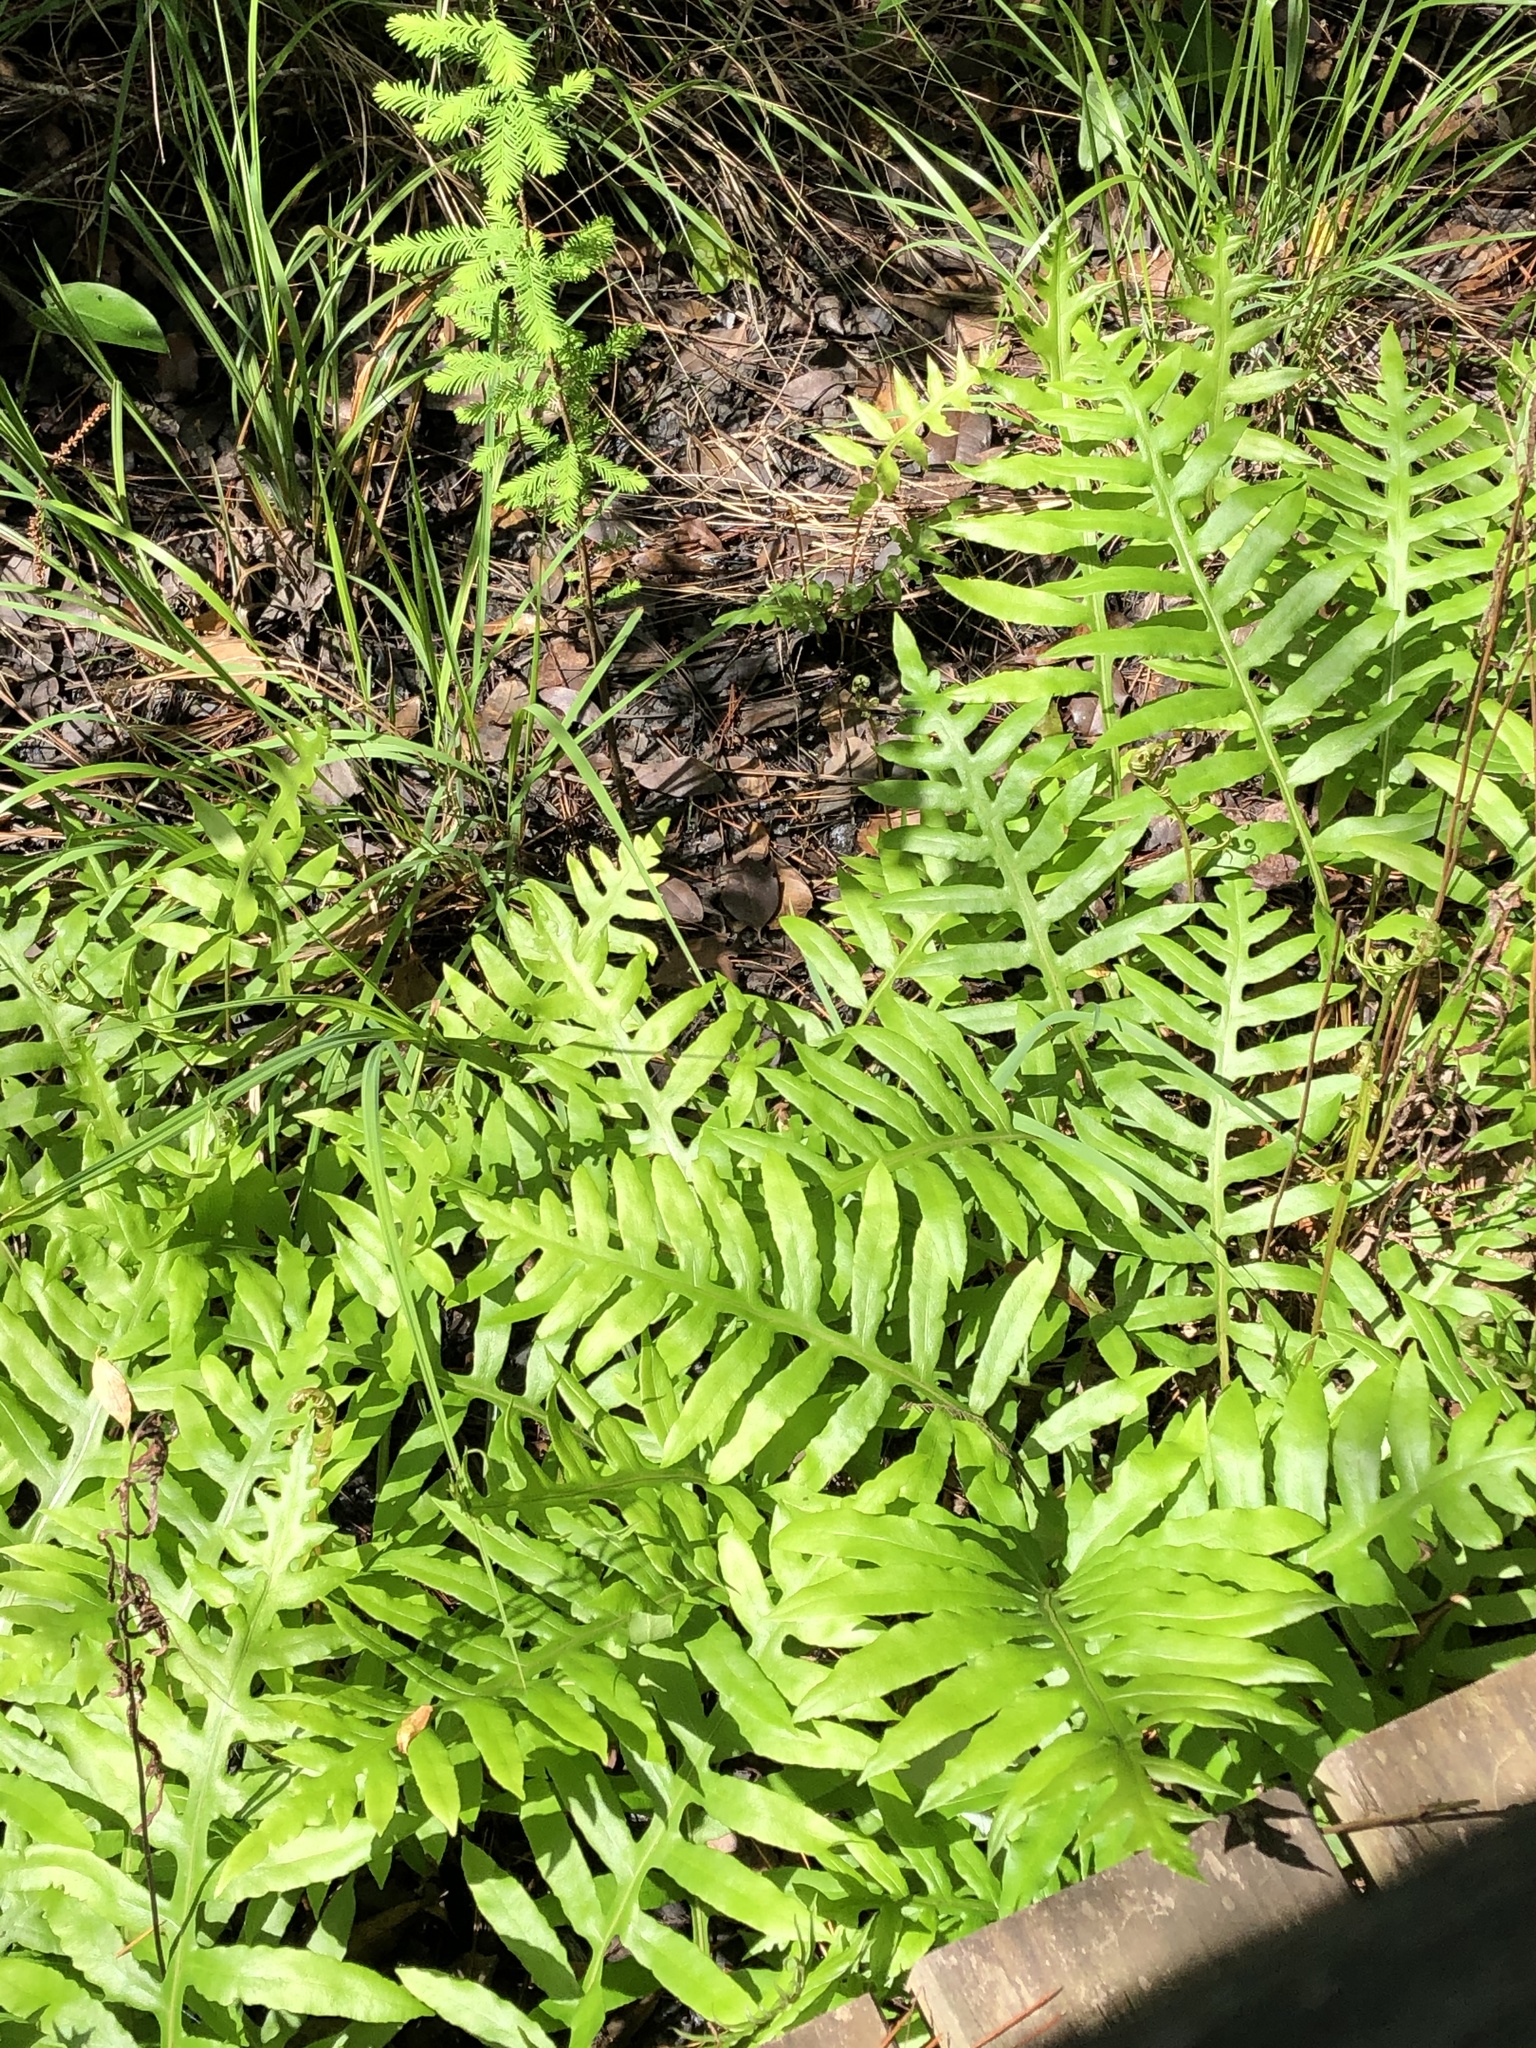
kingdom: Plantae
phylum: Tracheophyta
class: Polypodiopsida
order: Polypodiales
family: Onocleaceae
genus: Onoclea
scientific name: Onoclea sensibilis
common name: Sensitive fern
